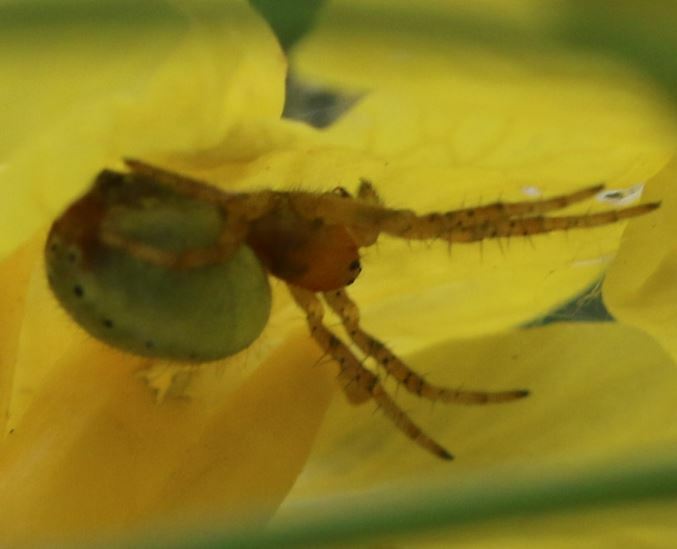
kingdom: Animalia
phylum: Arthropoda
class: Arachnida
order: Araneae
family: Araneidae
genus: Araniella
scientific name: Araniella
